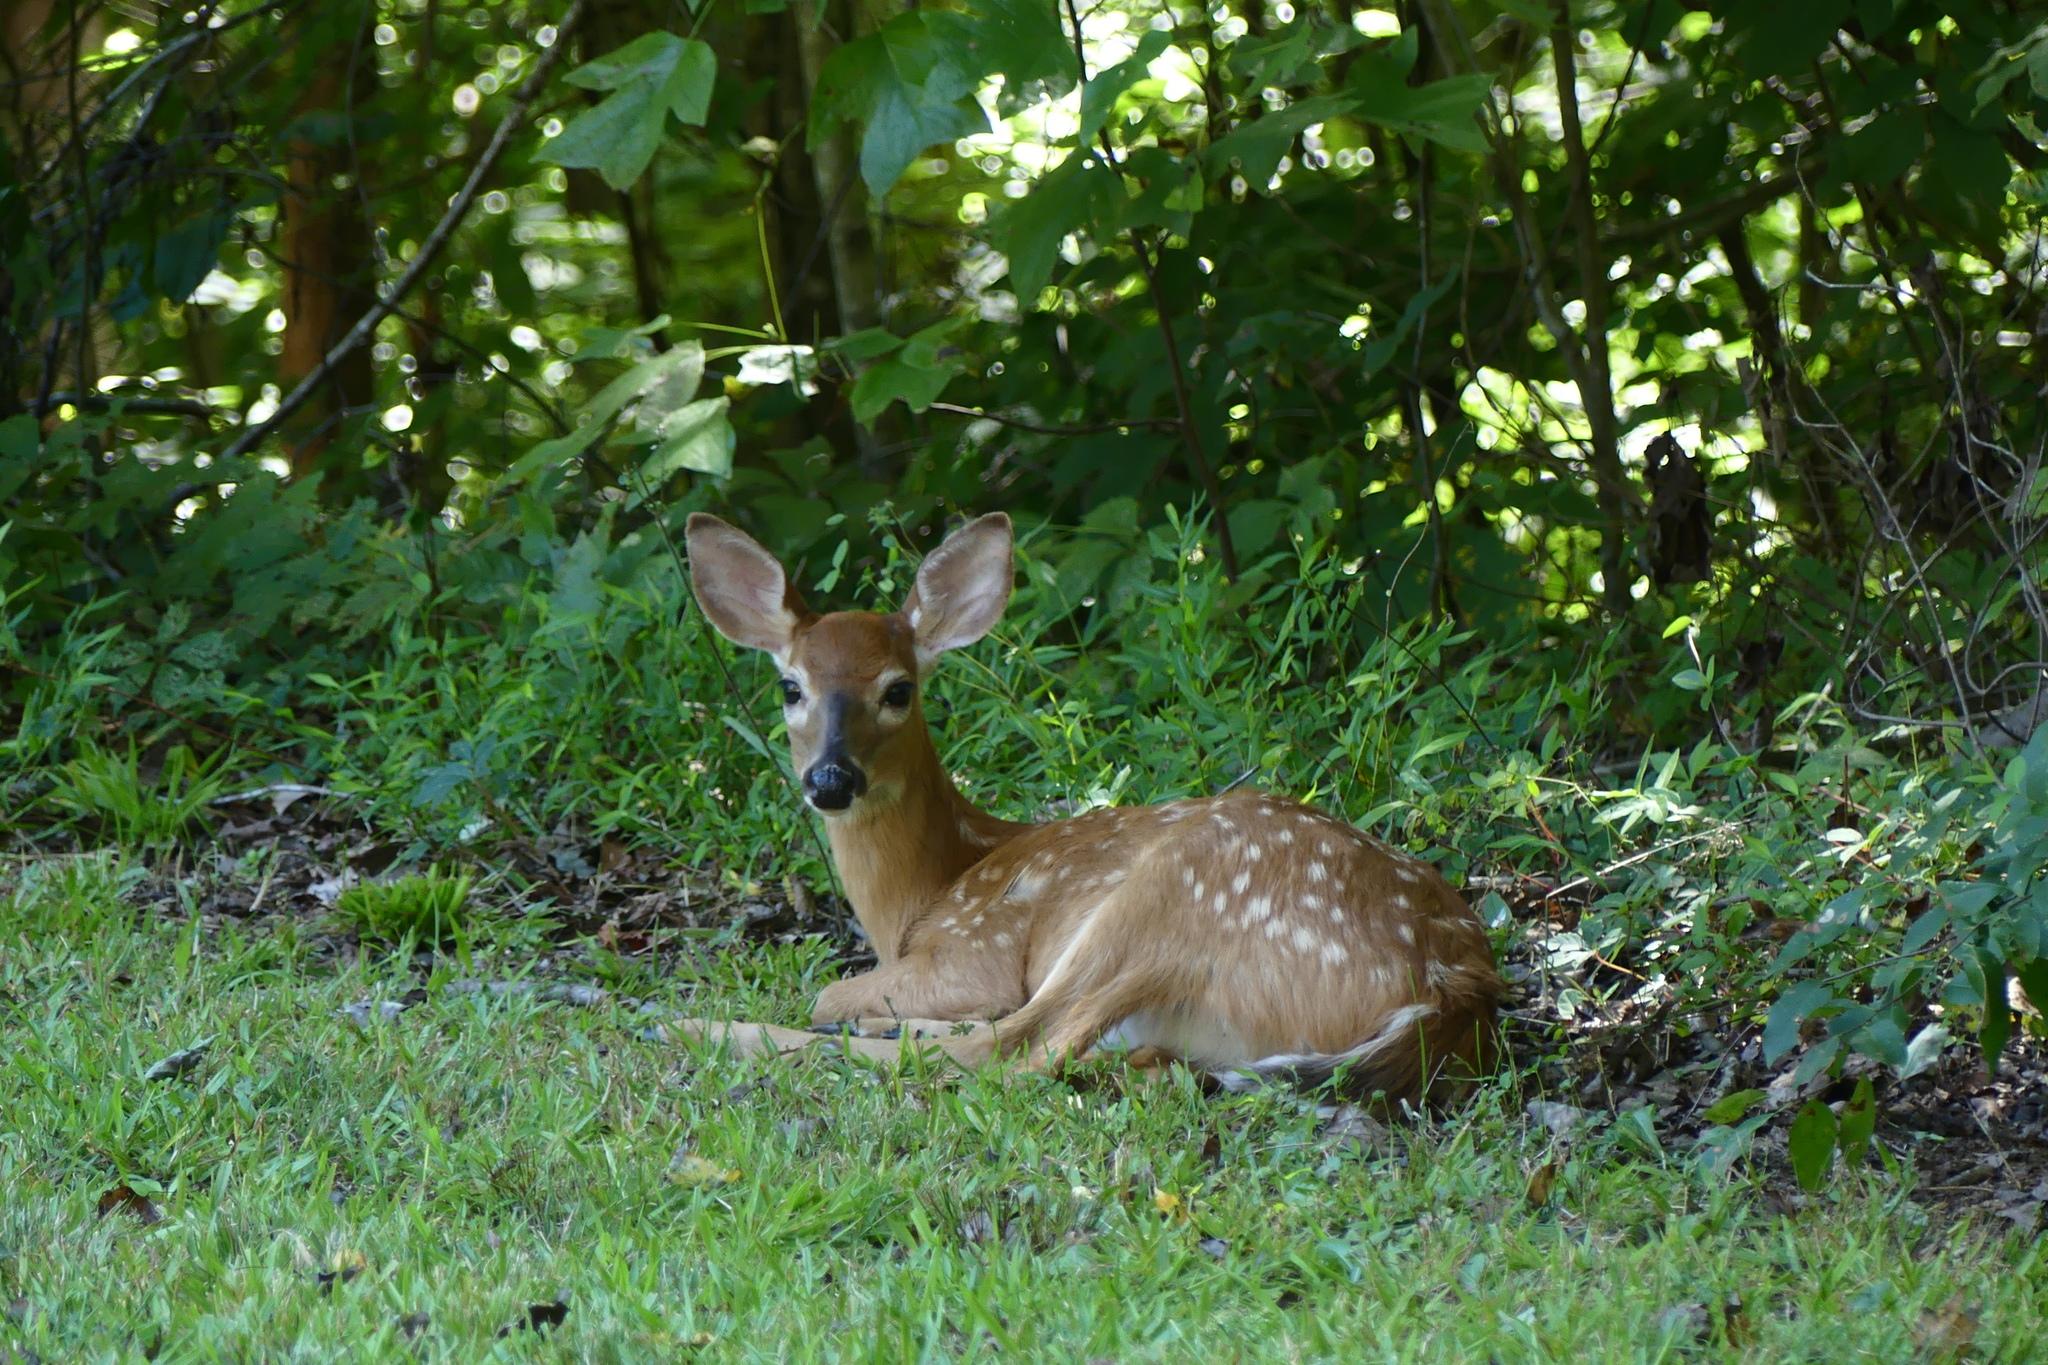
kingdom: Animalia
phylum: Chordata
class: Mammalia
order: Artiodactyla
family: Cervidae
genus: Odocoileus
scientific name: Odocoileus virginianus
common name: White-tailed deer
